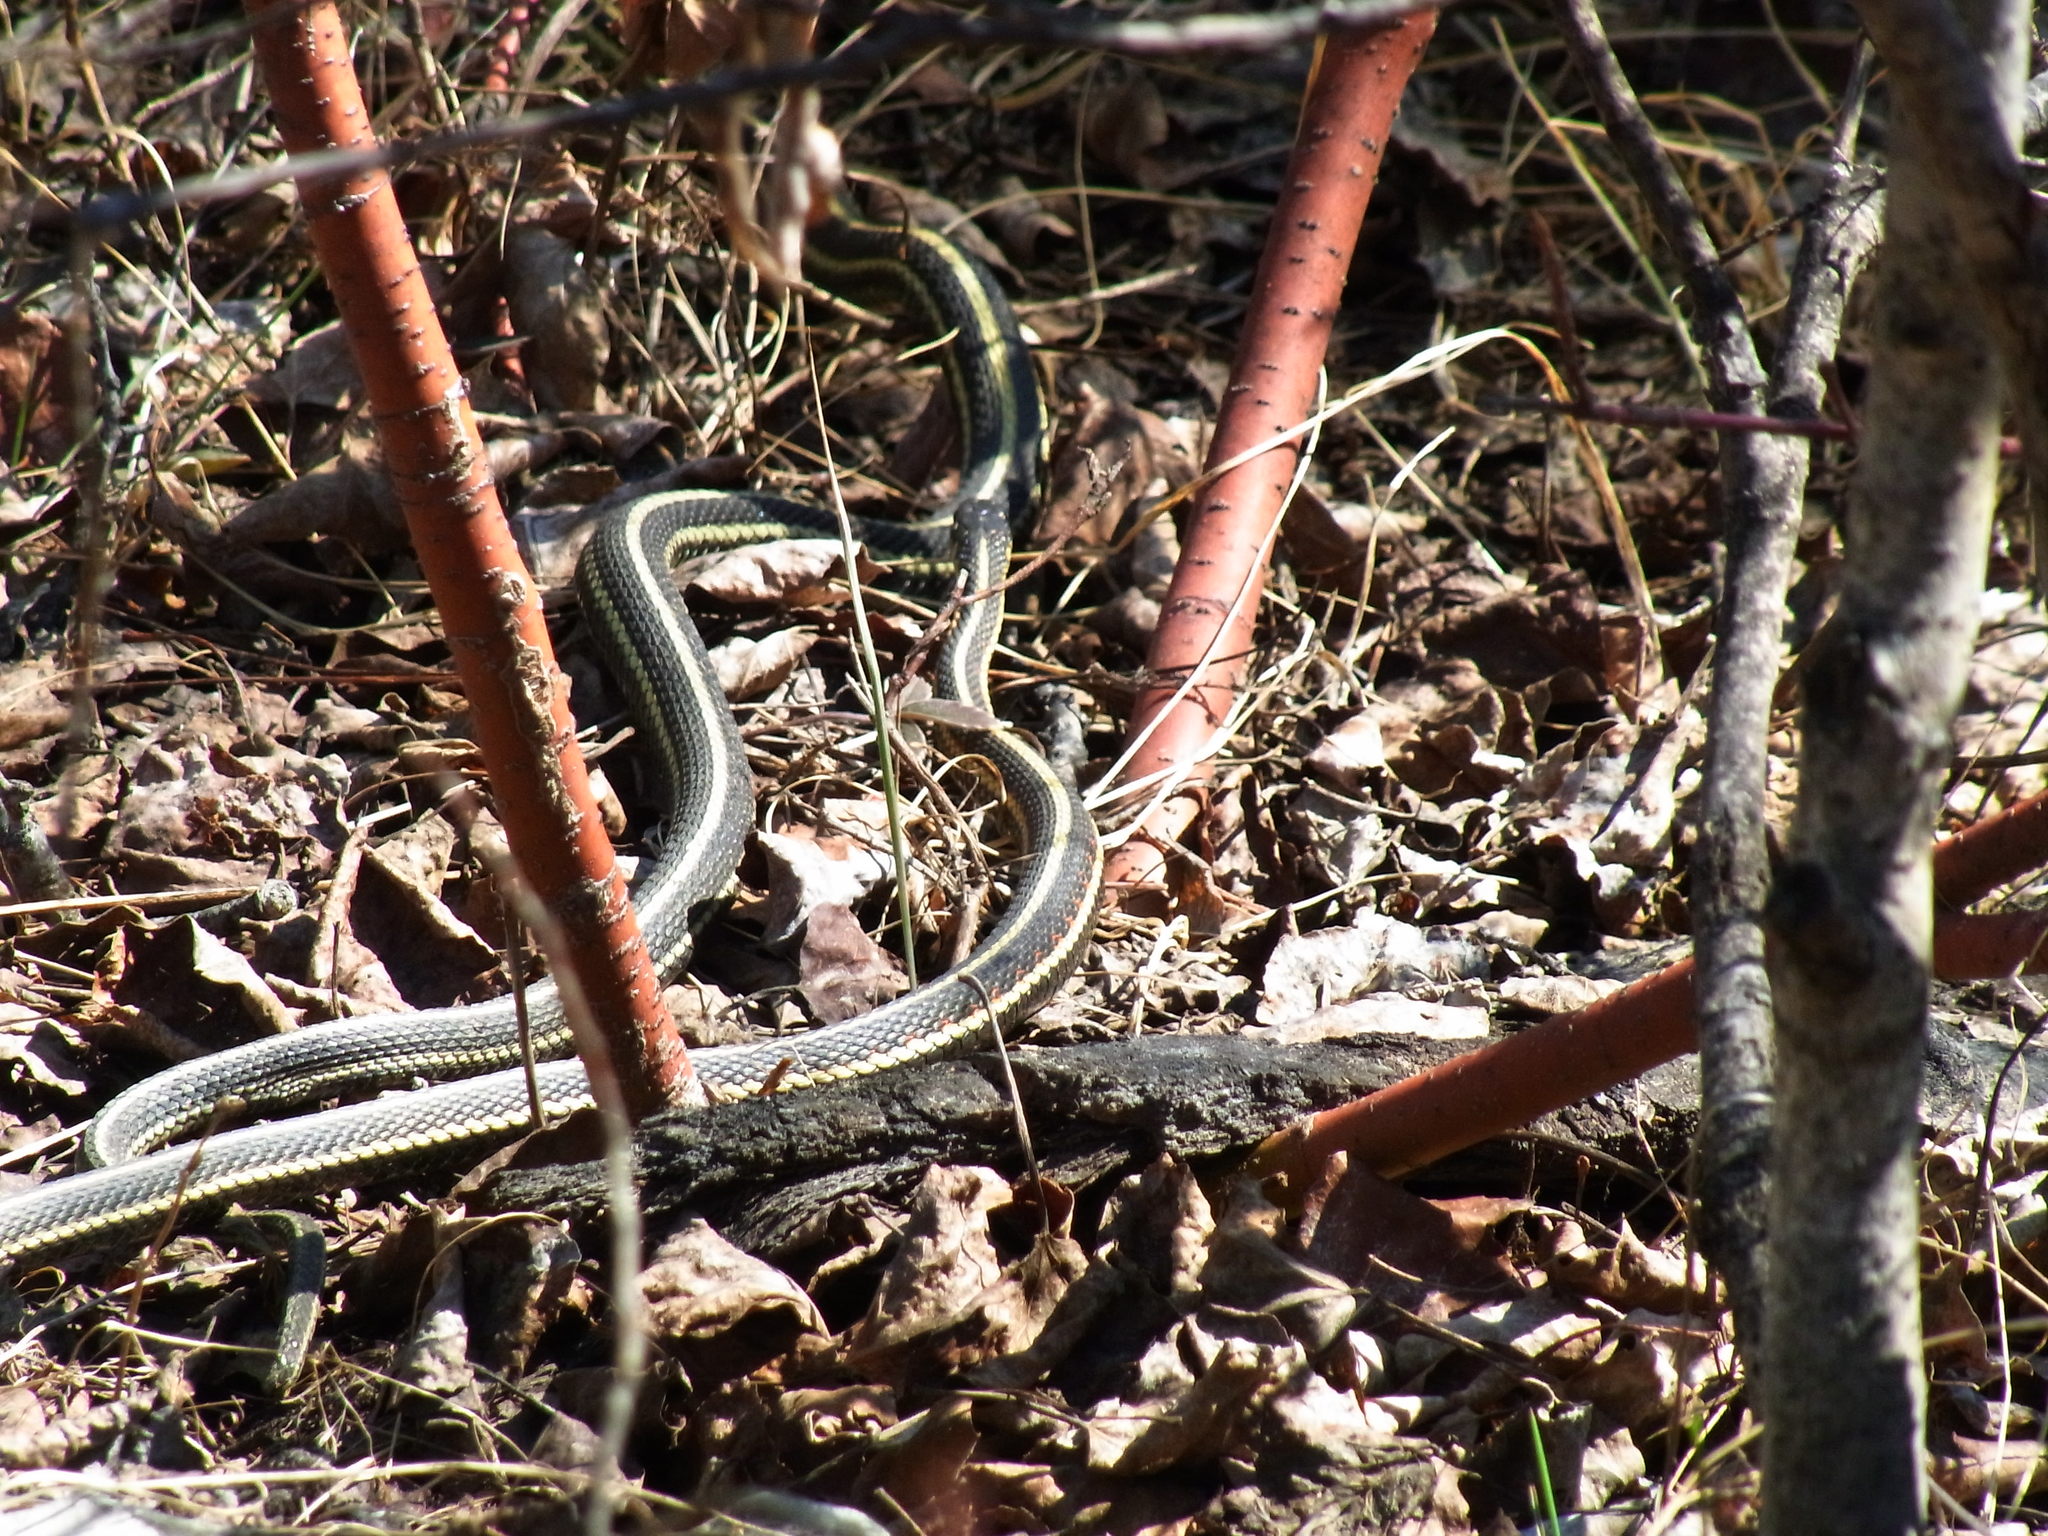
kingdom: Animalia
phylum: Chordata
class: Squamata
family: Colubridae
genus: Thamnophis
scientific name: Thamnophis sirtalis
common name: Common garter snake
